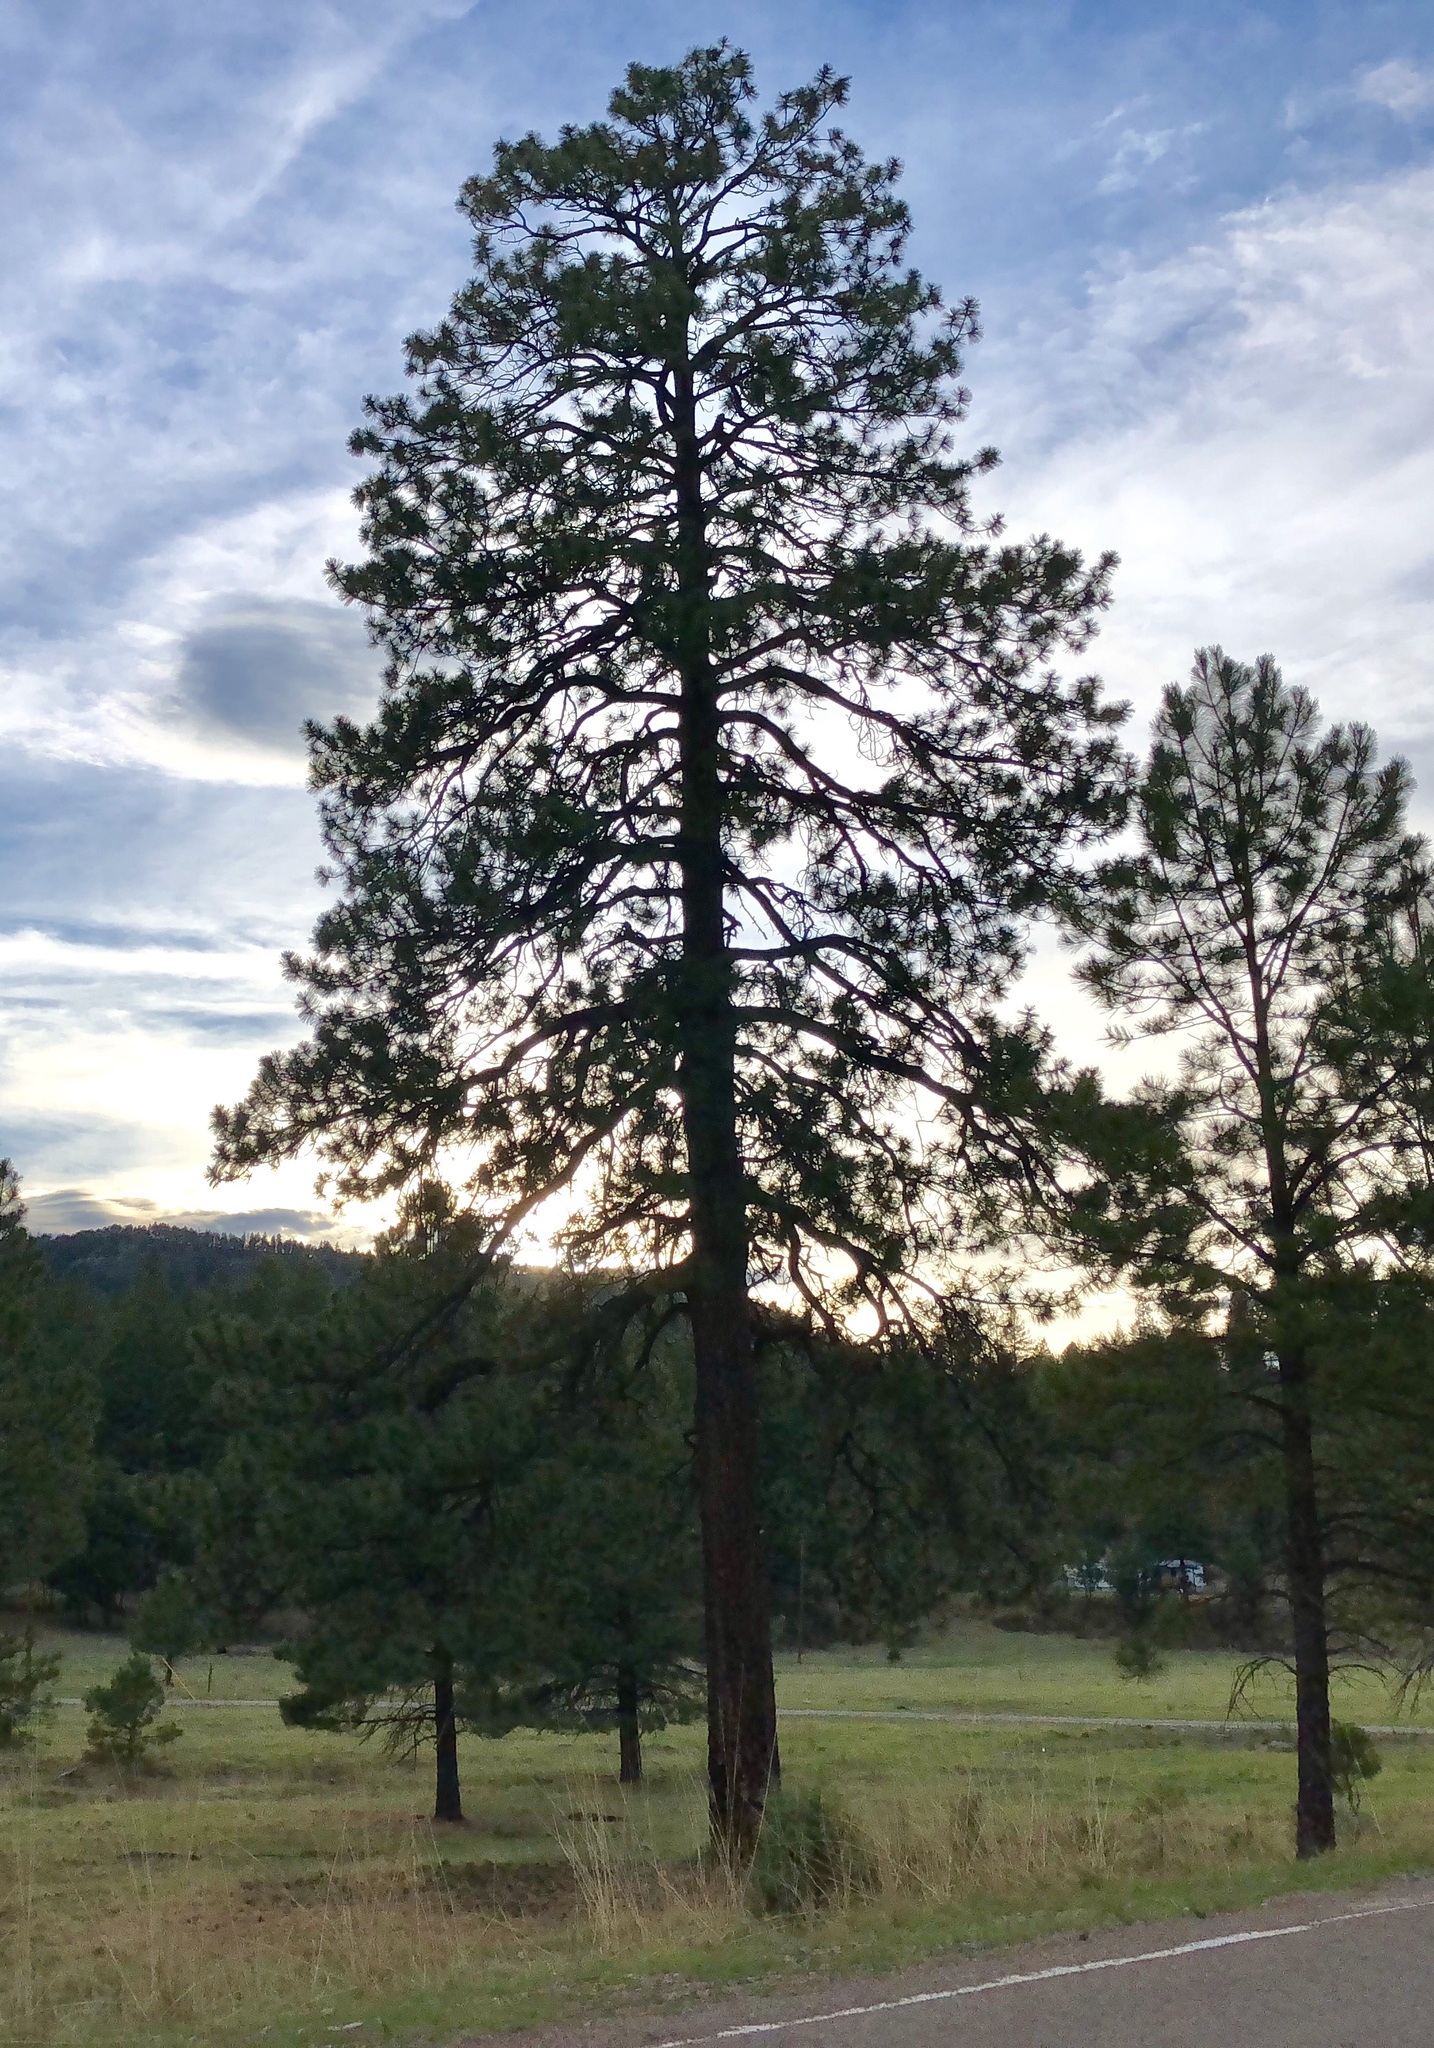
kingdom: Plantae
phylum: Tracheophyta
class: Pinopsida
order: Pinales
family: Pinaceae
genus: Pinus
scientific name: Pinus ponderosa
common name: Western yellow-pine
